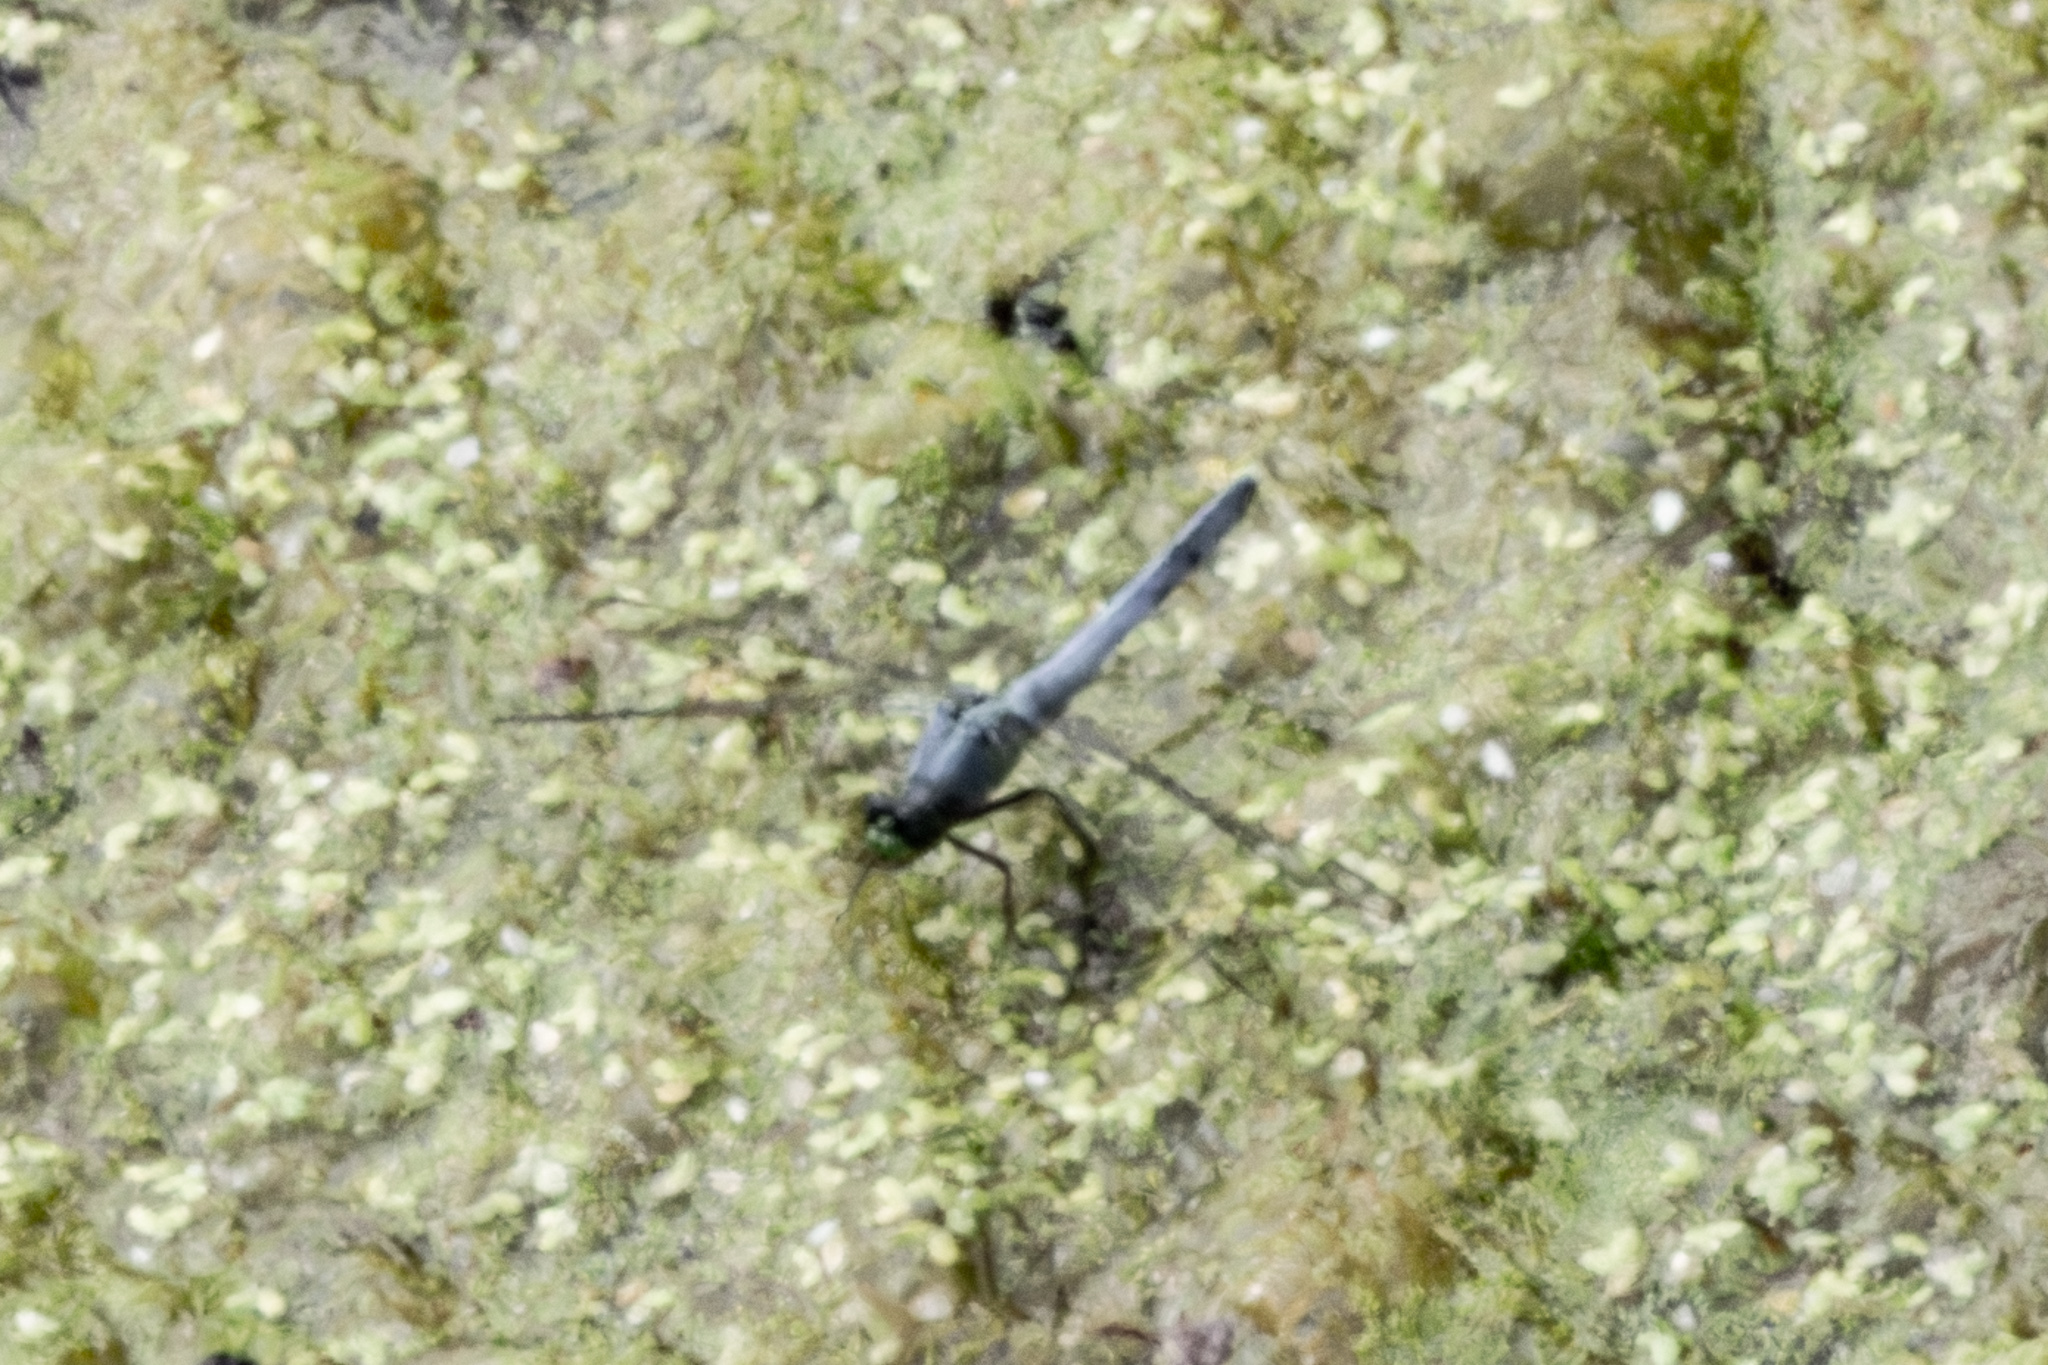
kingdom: Animalia
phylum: Arthropoda
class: Insecta
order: Odonata
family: Libellulidae
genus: Erythemis
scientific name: Erythemis simplicicollis
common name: Eastern pondhawk
